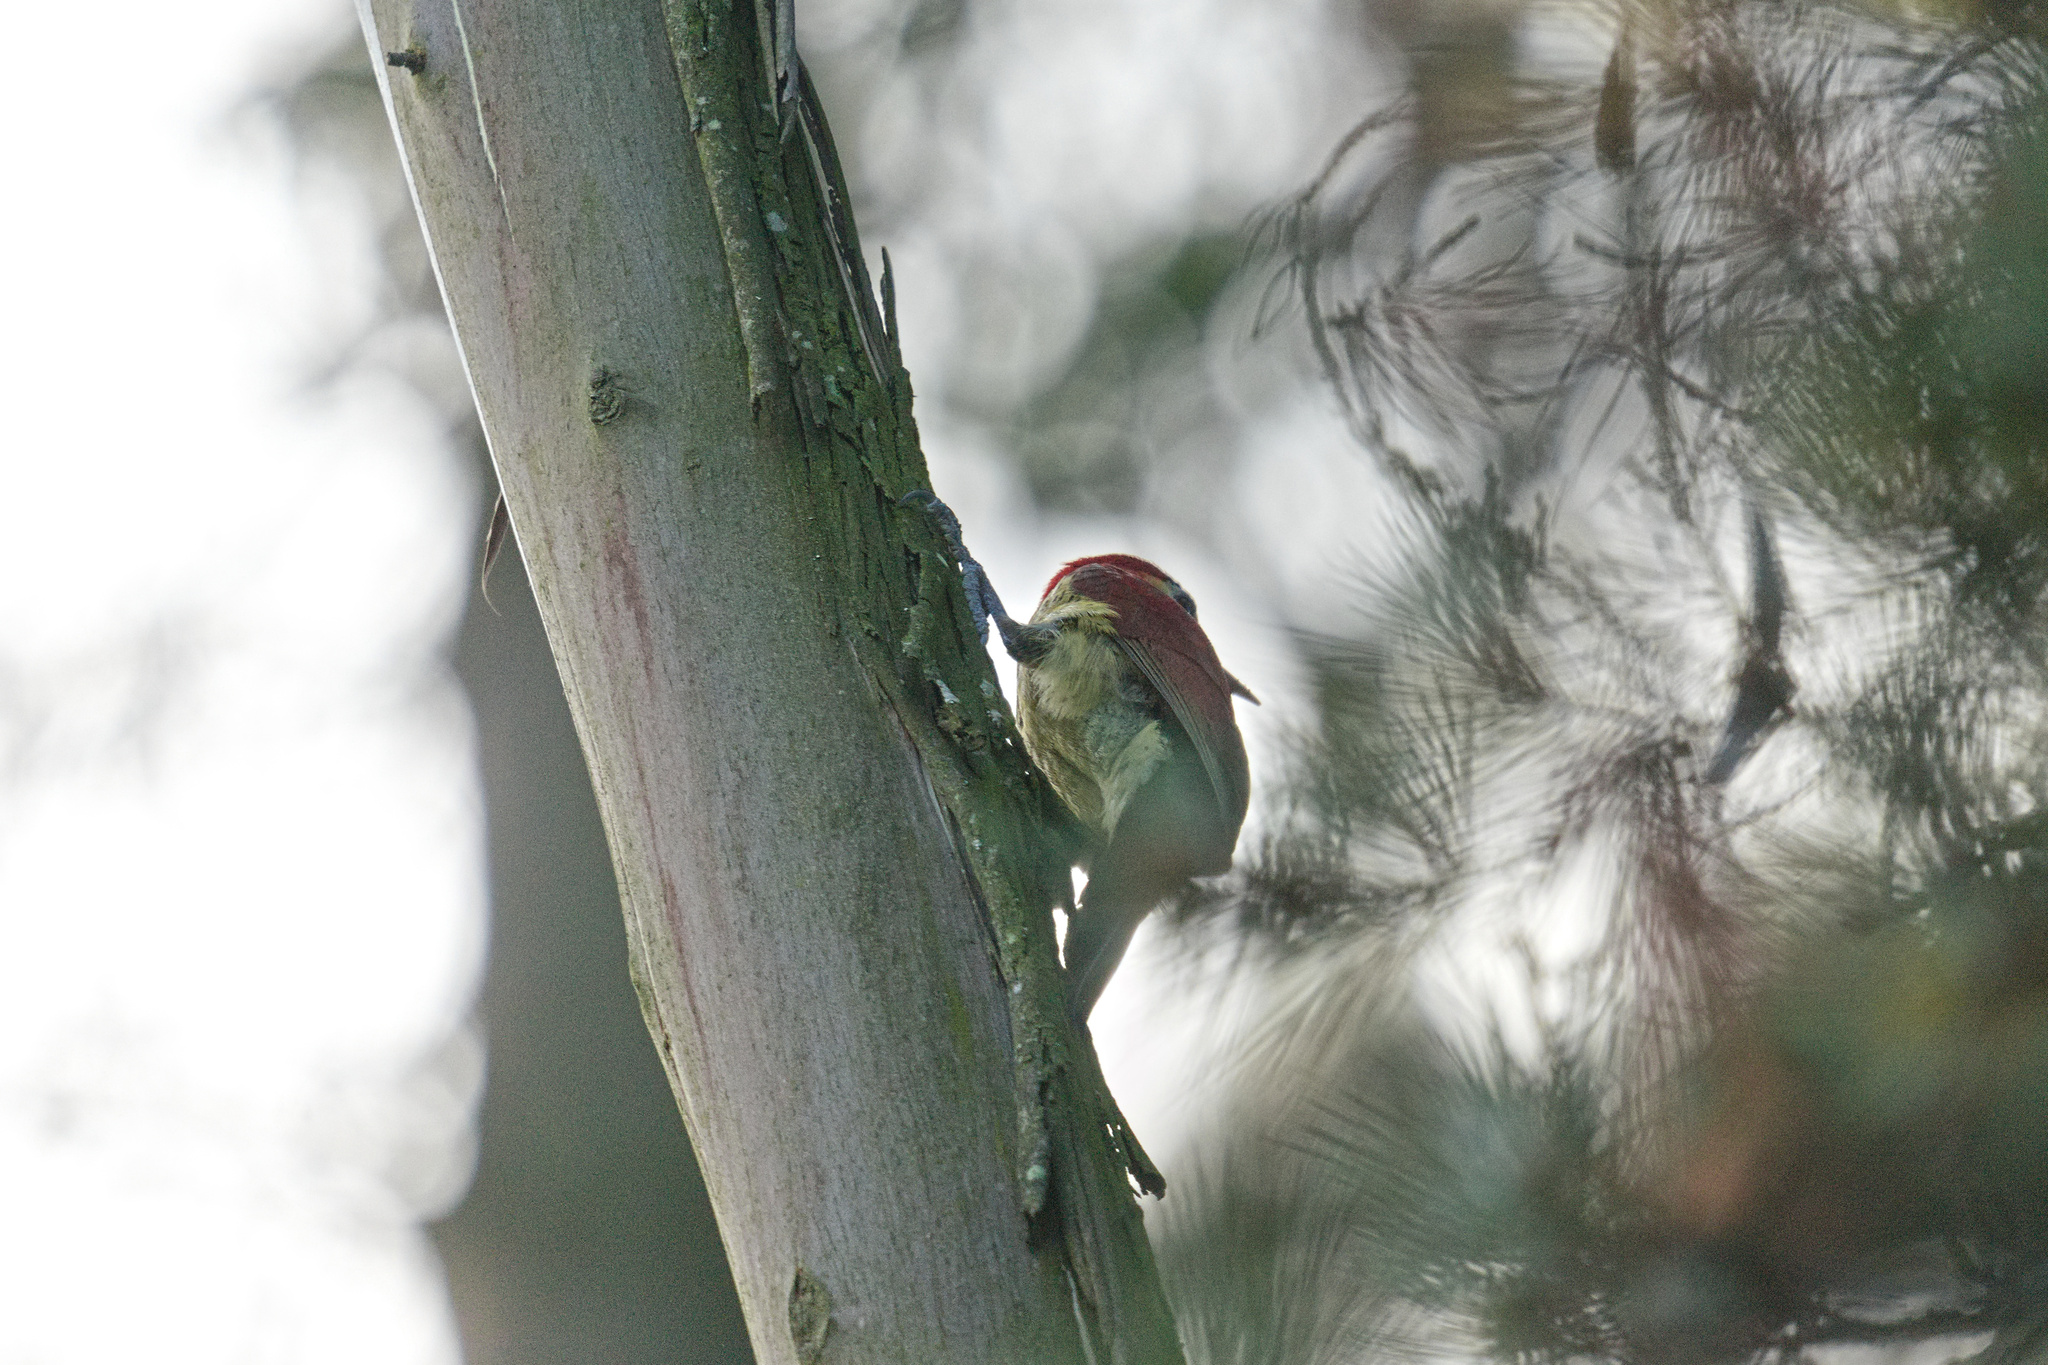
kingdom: Animalia
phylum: Chordata
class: Aves
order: Piciformes
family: Picidae
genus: Colaptes
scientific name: Colaptes rivolii
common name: Crimson-mantled woodpecker
